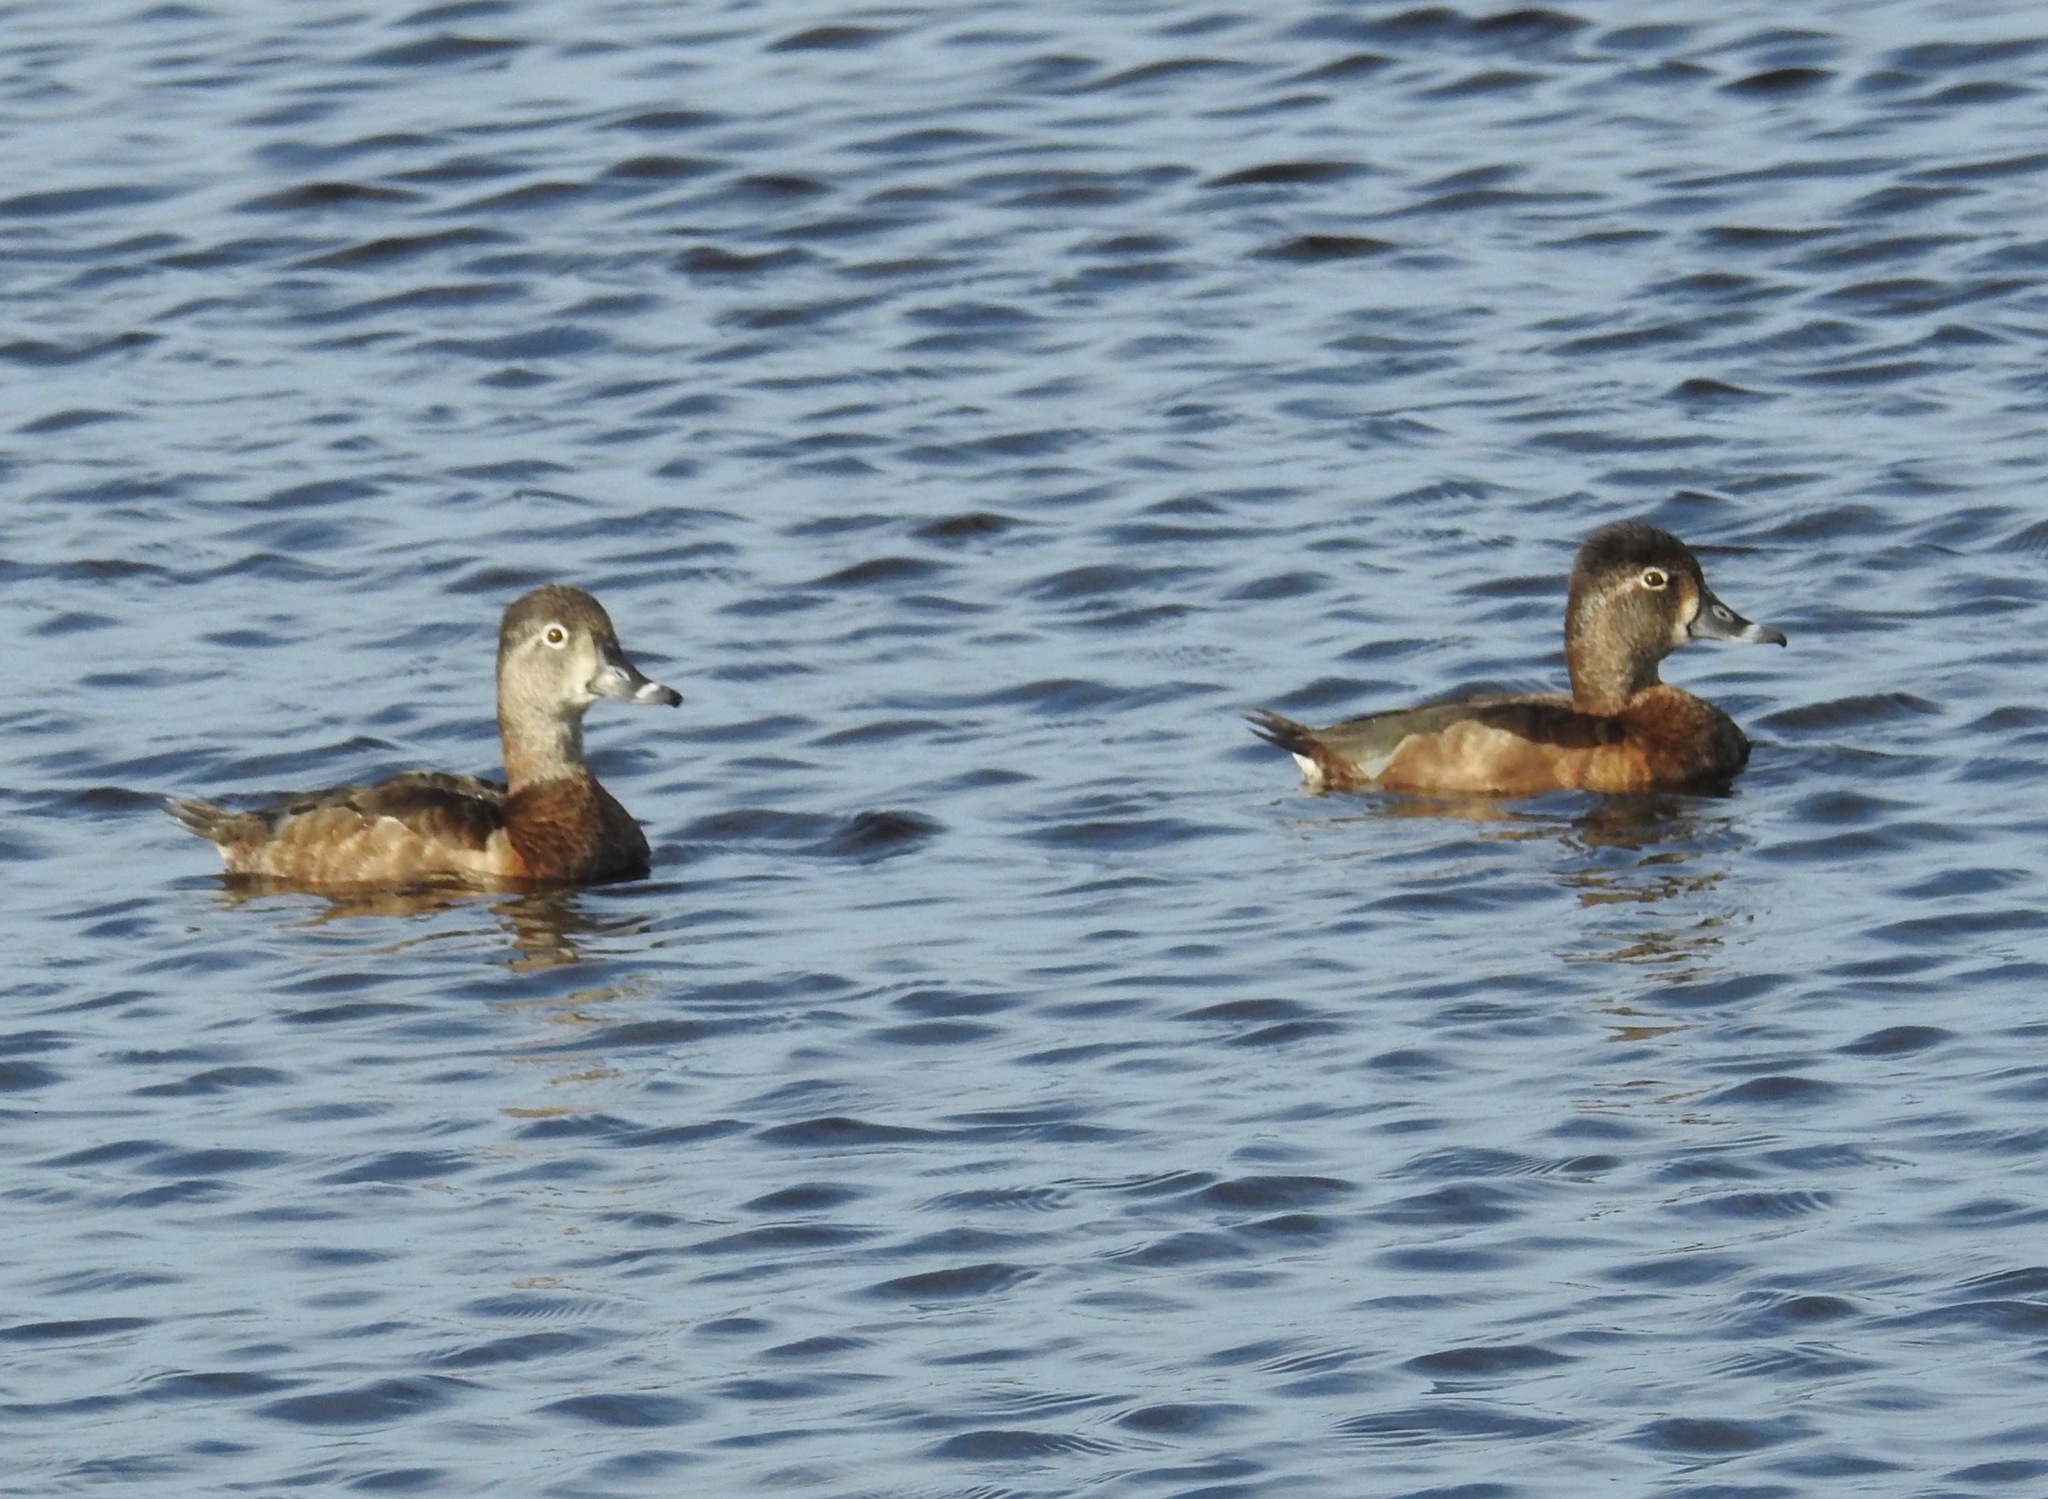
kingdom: Animalia
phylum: Chordata
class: Aves
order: Anseriformes
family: Anatidae
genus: Aythya
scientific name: Aythya collaris
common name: Ring-necked duck
